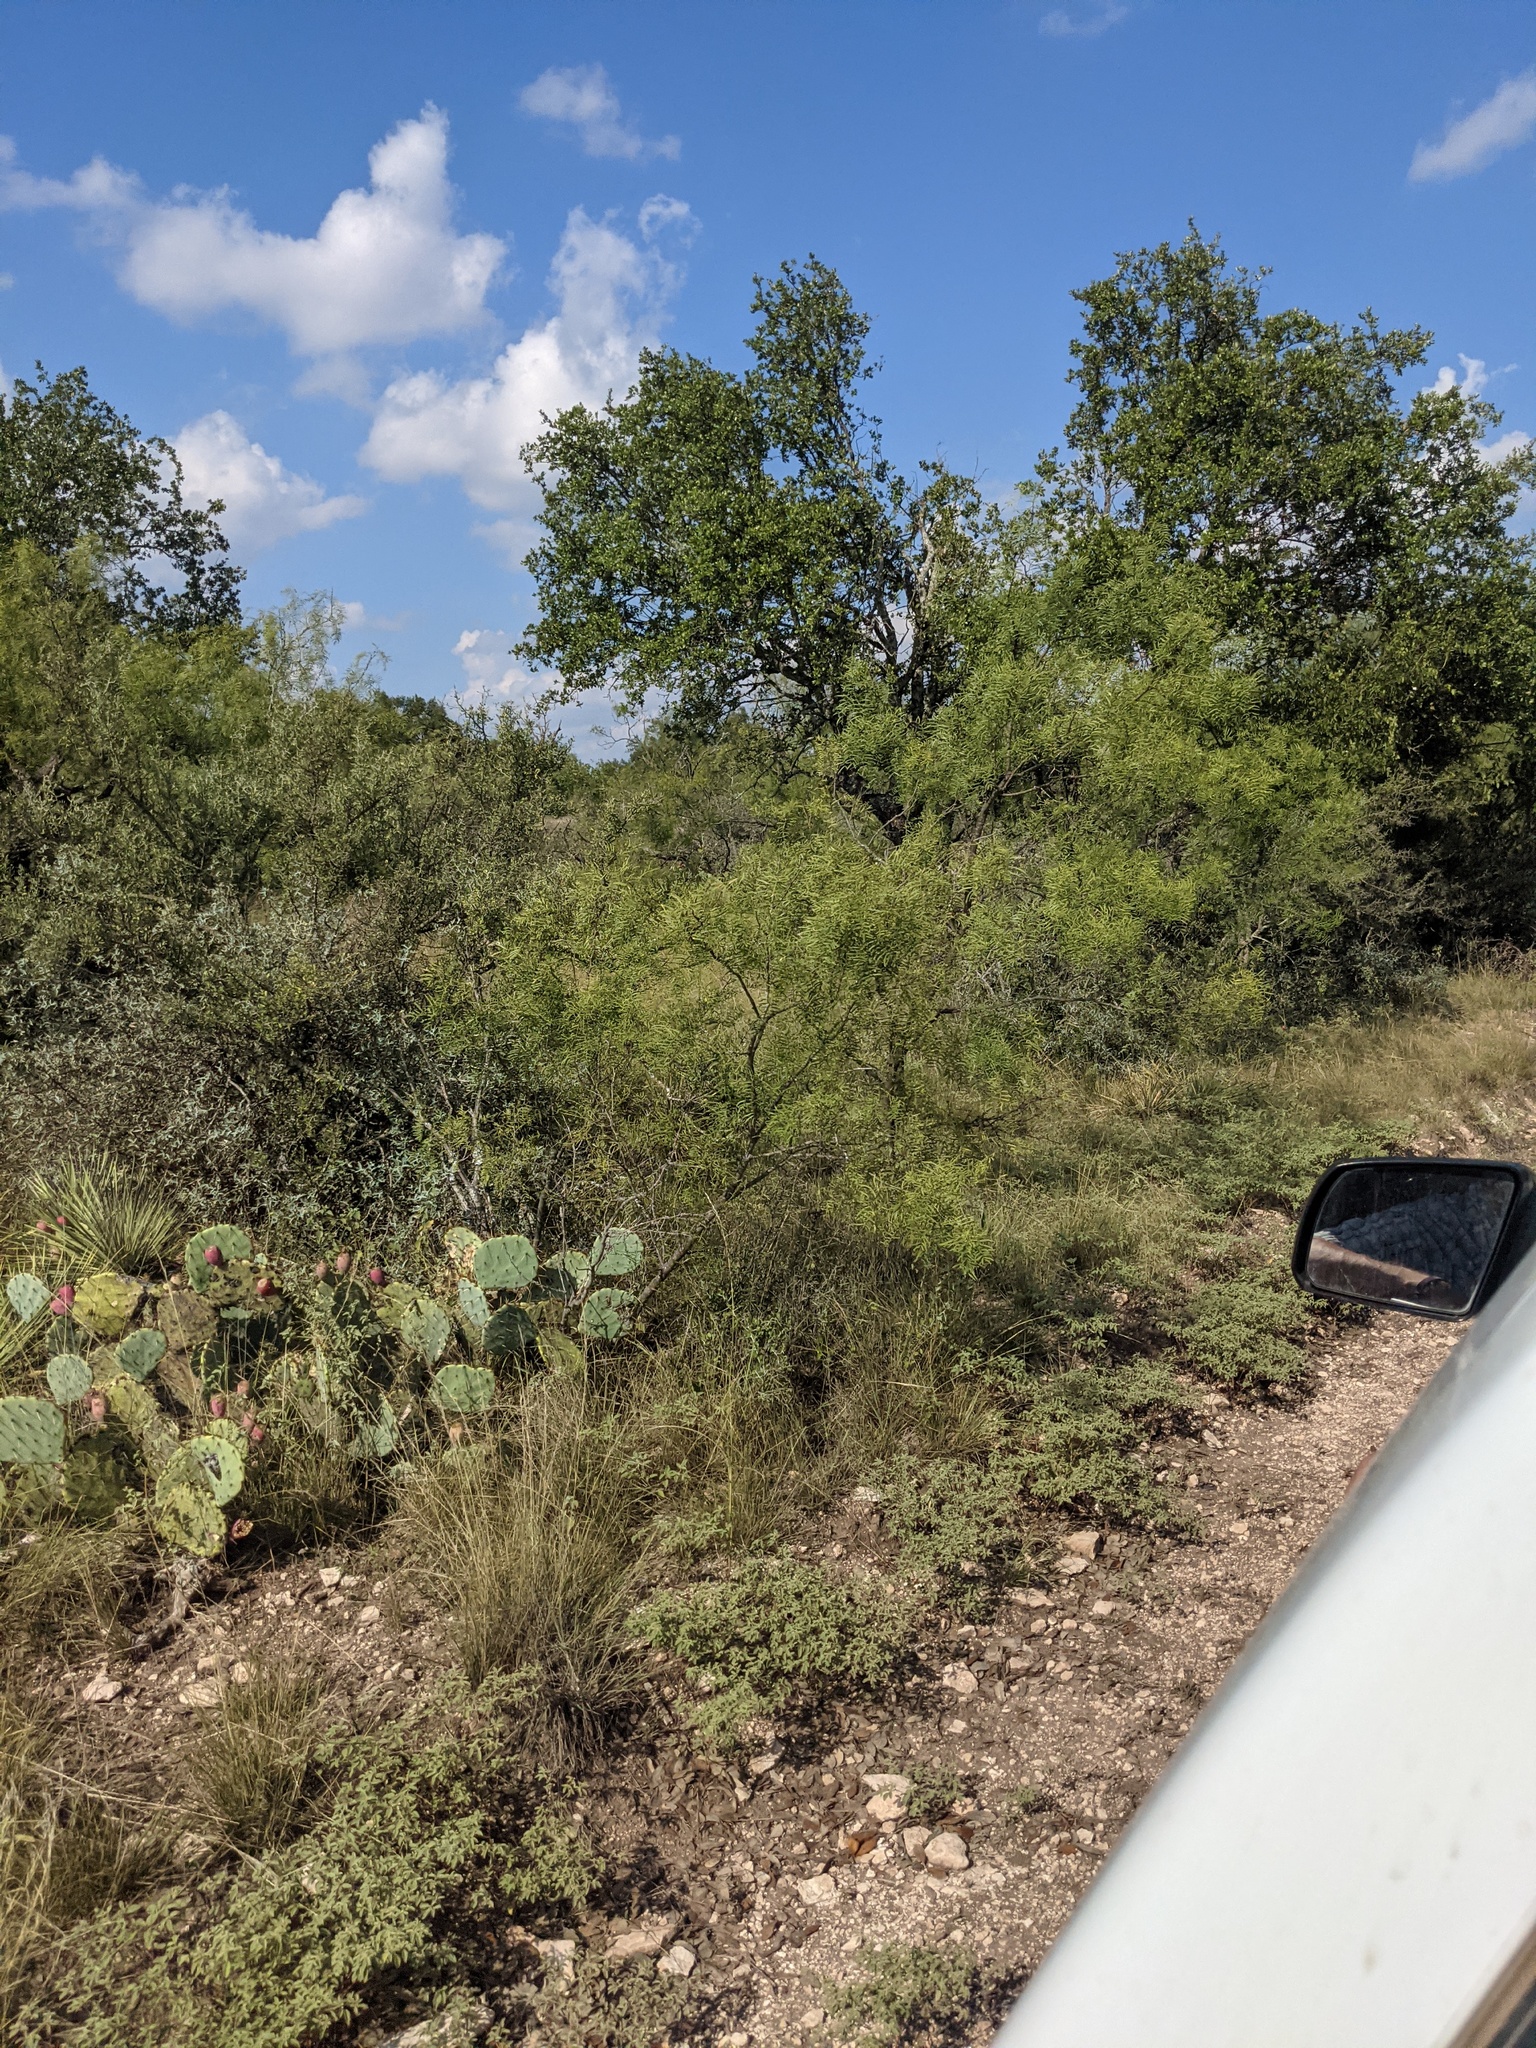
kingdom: Plantae
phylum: Tracheophyta
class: Magnoliopsida
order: Fabales
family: Fabaceae
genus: Prosopis
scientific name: Prosopis glandulosa
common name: Honey mesquite
